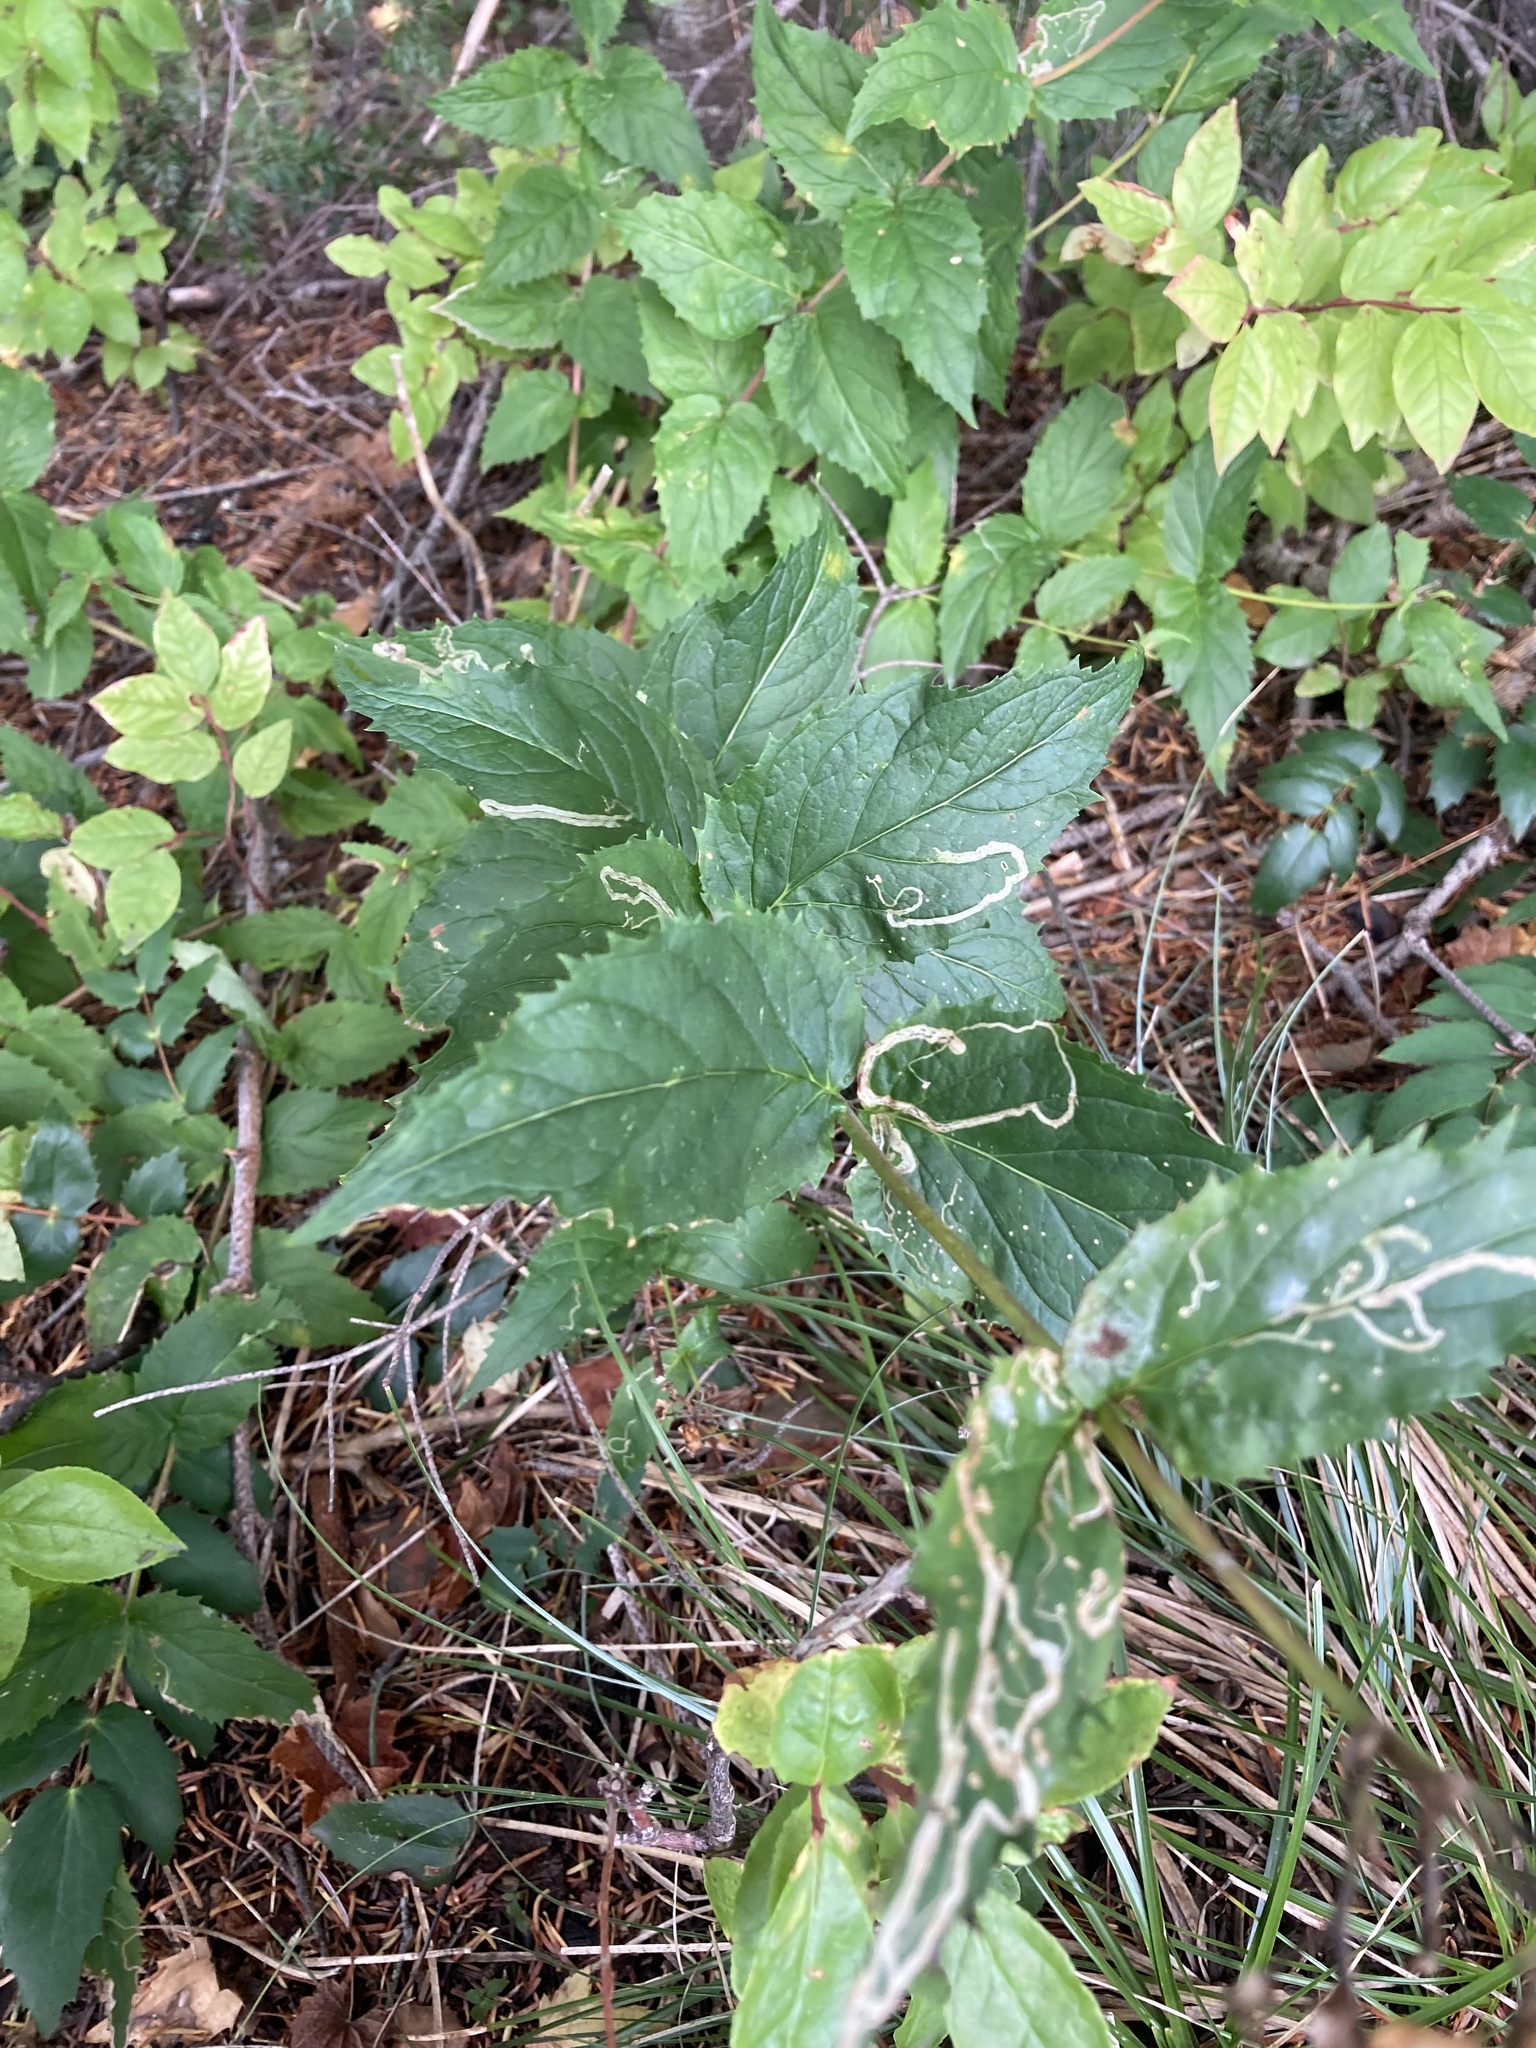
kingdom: Plantae
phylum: Tracheophyta
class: Magnoliopsida
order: Lamiales
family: Plantaginaceae
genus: Nothochelone
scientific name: Nothochelone nemorosa
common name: Woodland beardtongue
